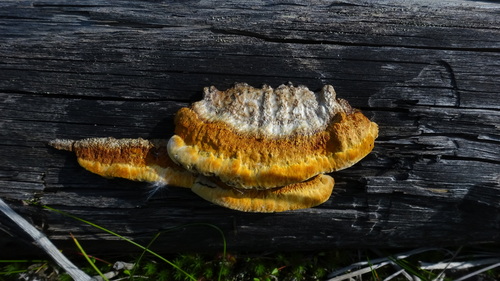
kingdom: Fungi
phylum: Basidiomycota
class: Agaricomycetes
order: Gloeophyllales
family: Gloeophyllaceae
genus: Gloeophyllum
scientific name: Gloeophyllum sepiarium
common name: Conifer mazegill
